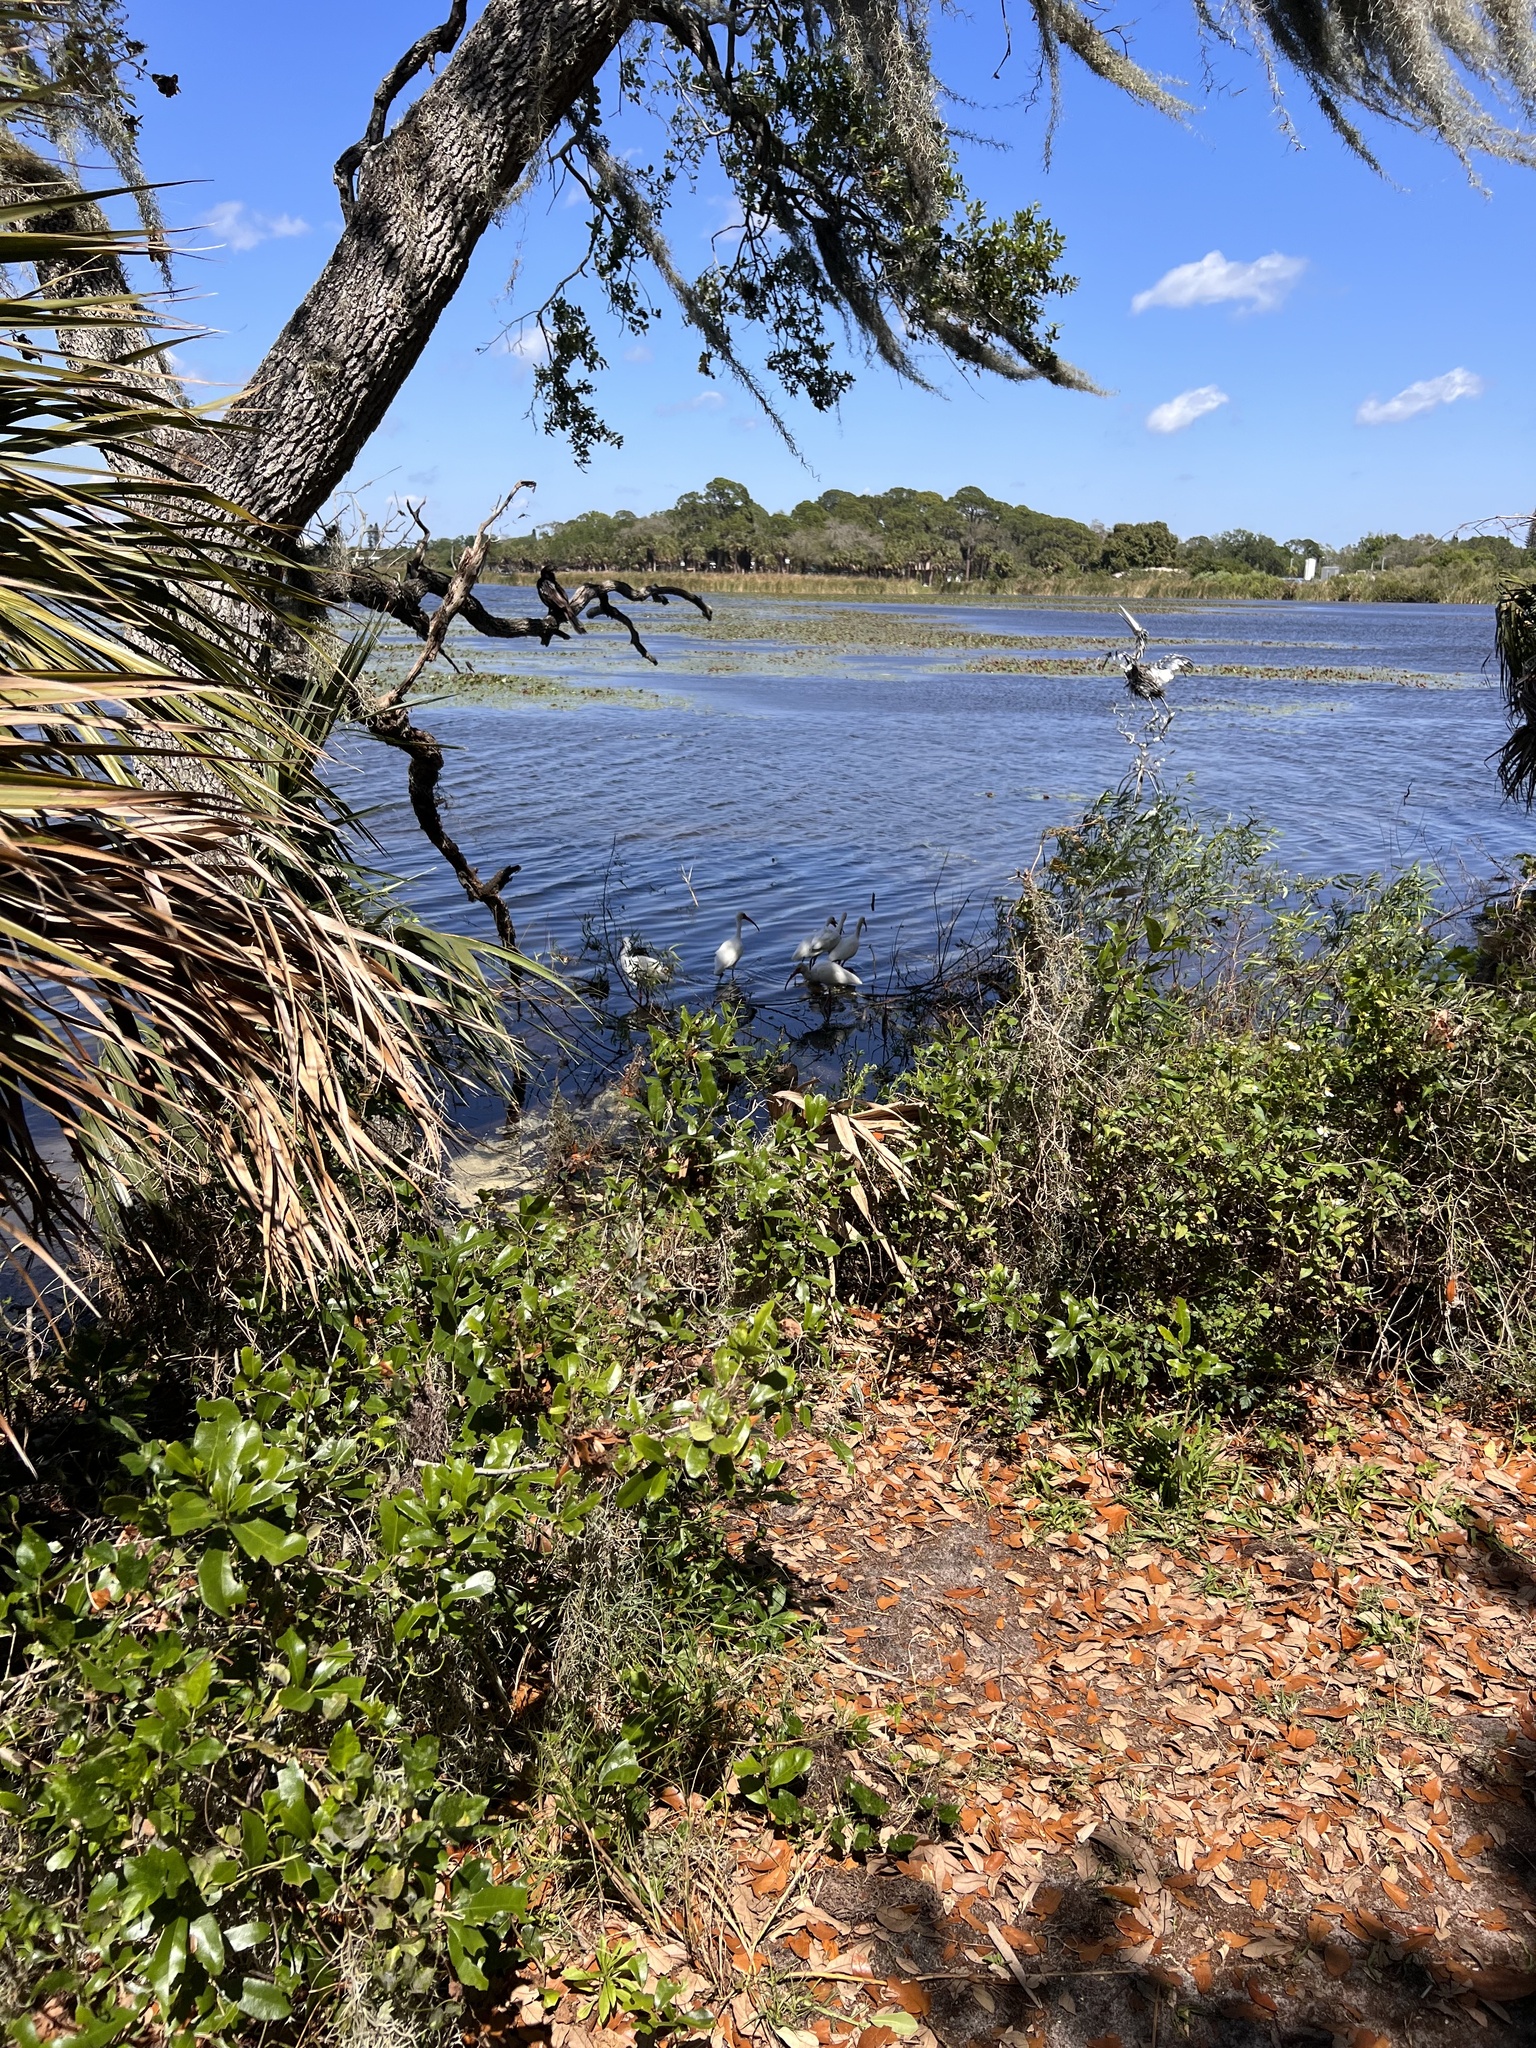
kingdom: Animalia
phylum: Chordata
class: Aves
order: Pelecaniformes
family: Threskiornithidae
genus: Eudocimus
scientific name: Eudocimus albus
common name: White ibis
